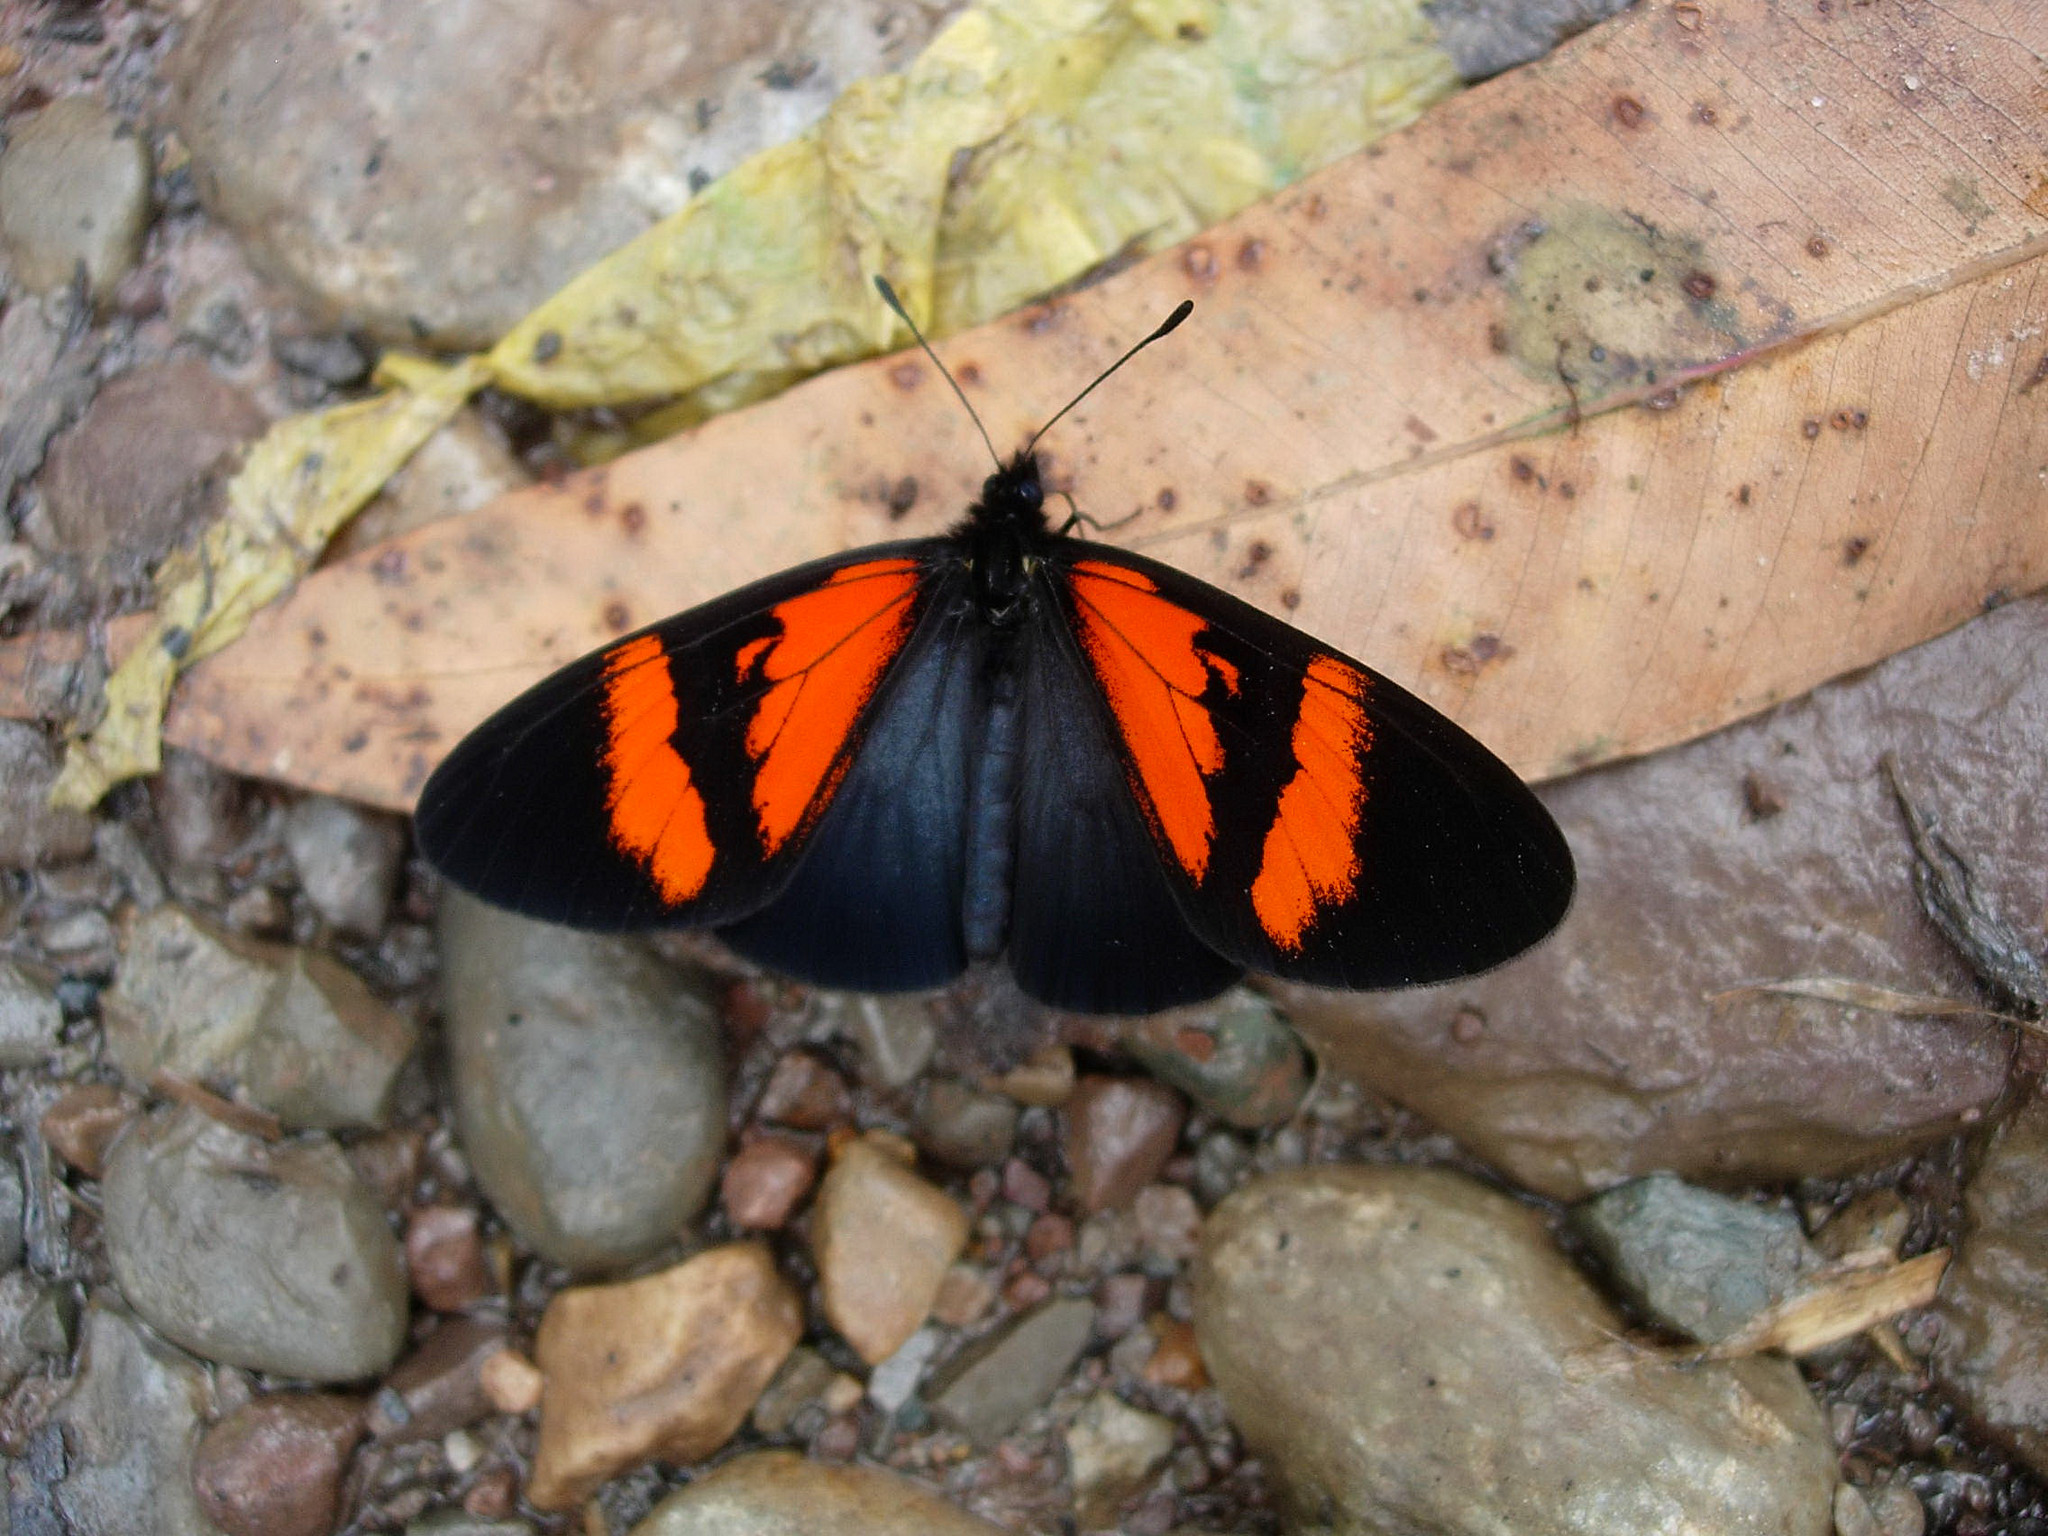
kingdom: Animalia
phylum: Arthropoda
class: Insecta
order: Lepidoptera
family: Nymphalidae
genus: Acraea
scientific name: Acraea Altinote dicaeus
